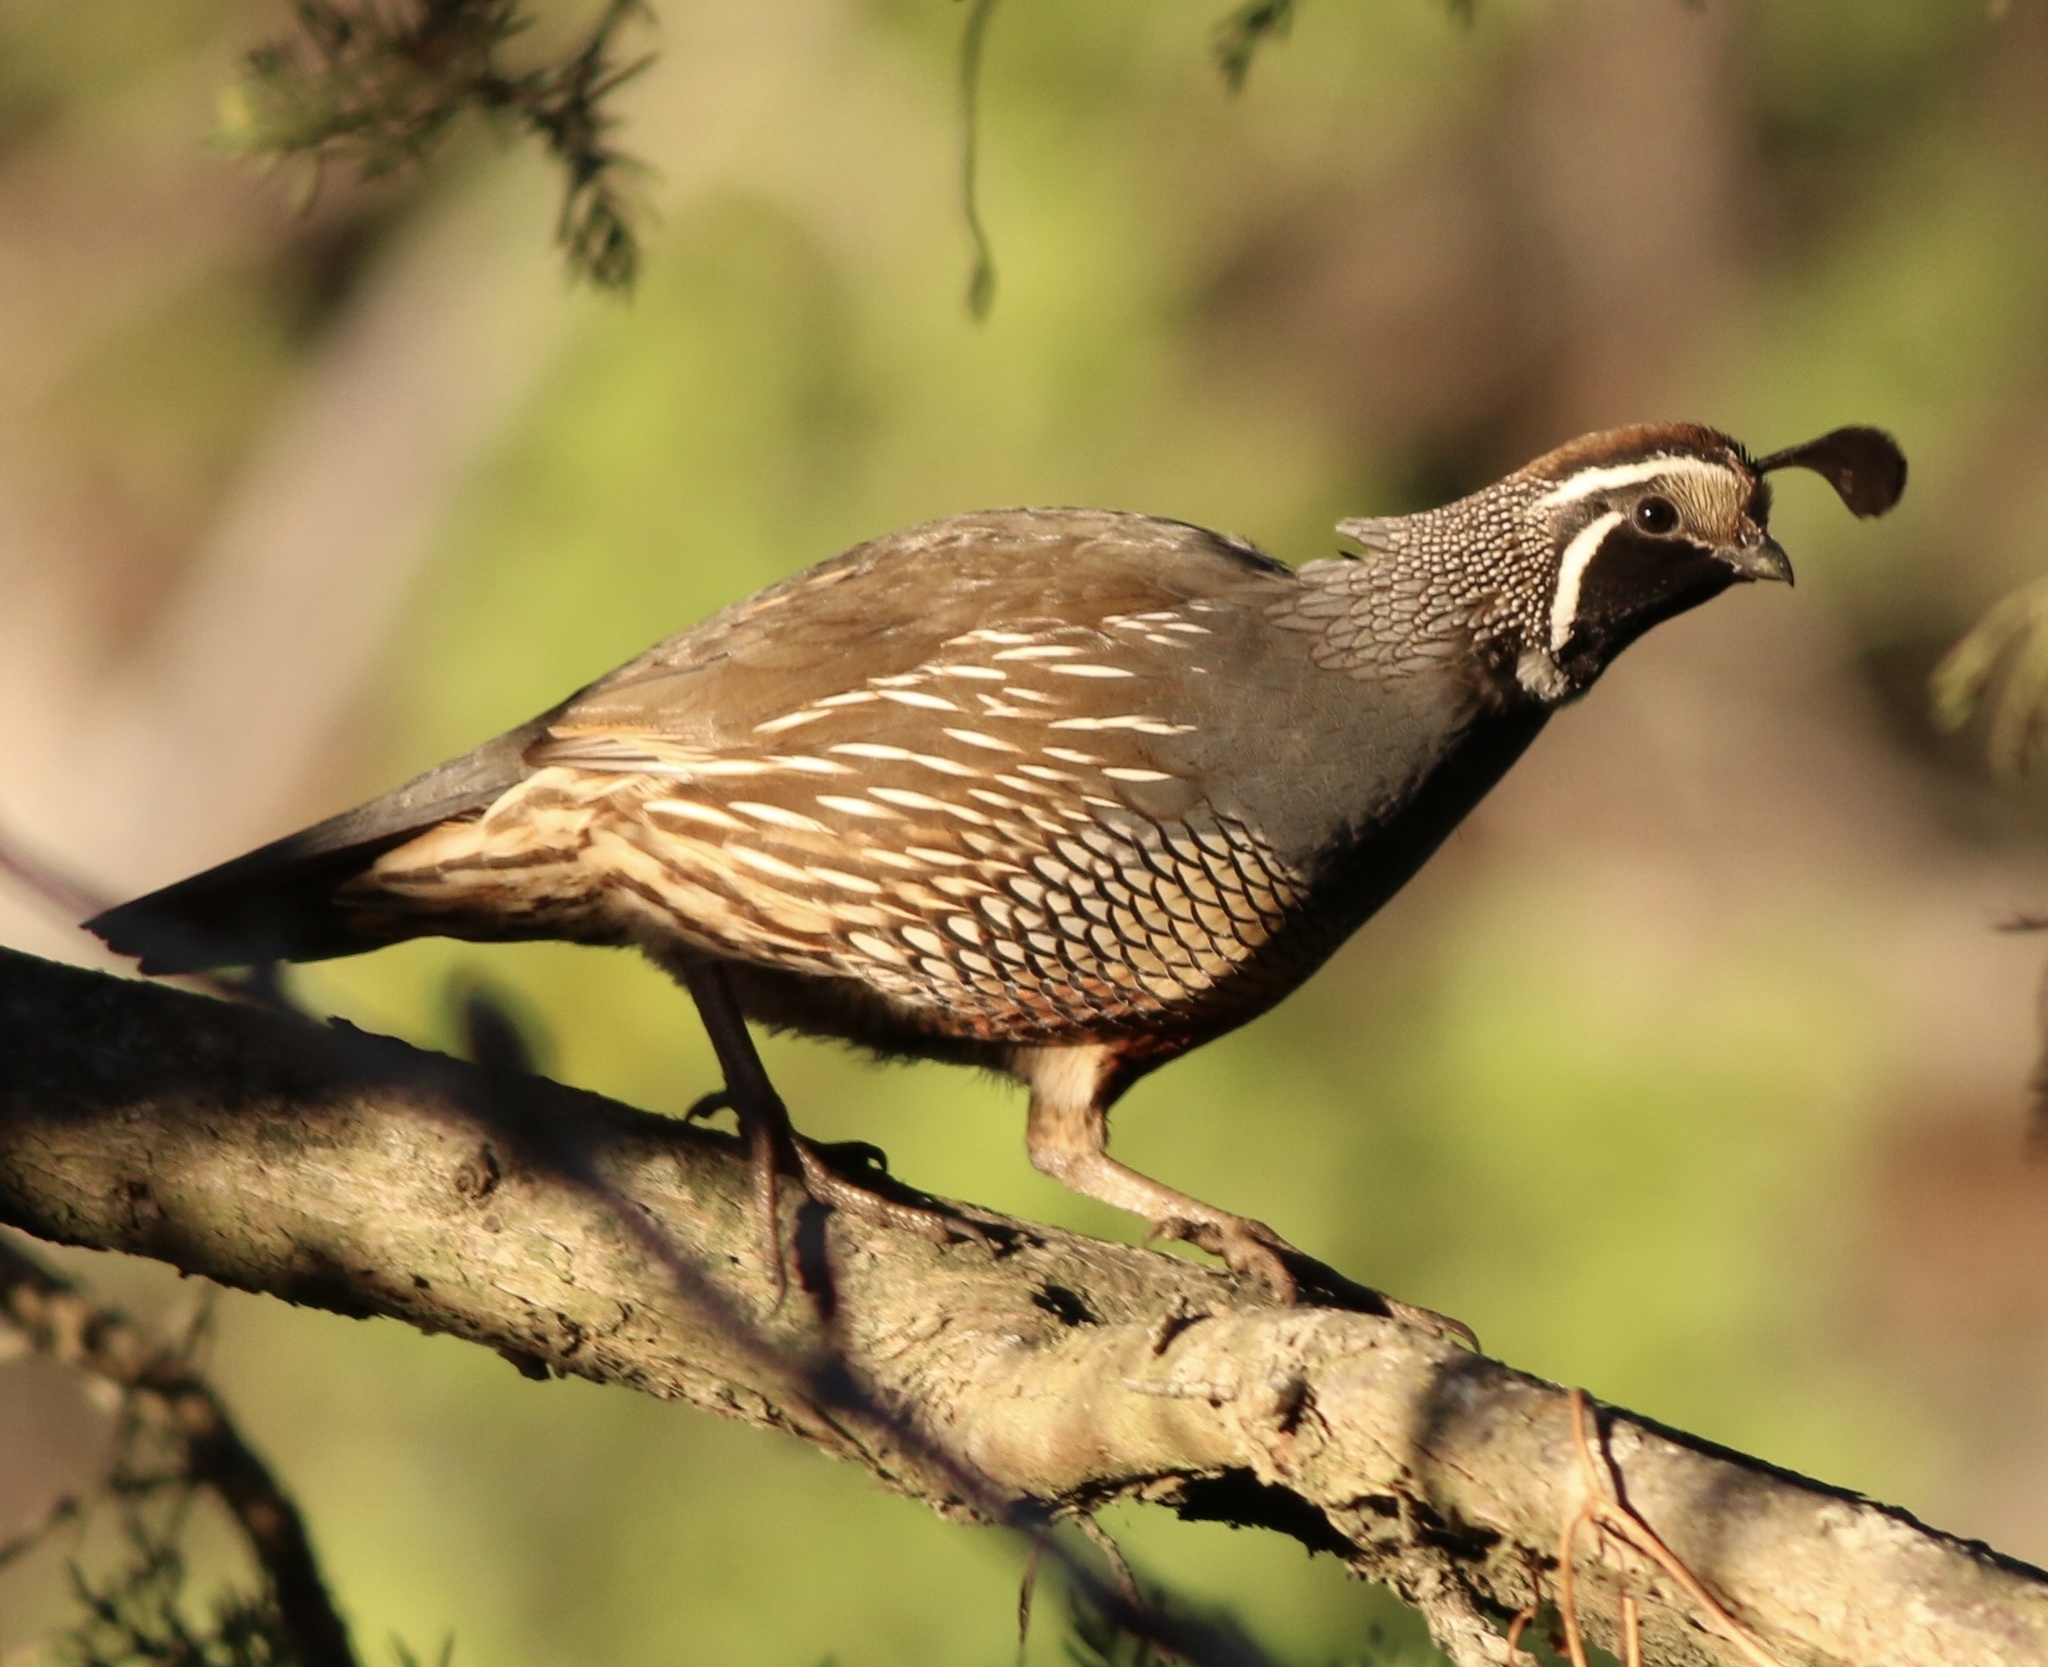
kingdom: Animalia
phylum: Chordata
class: Aves
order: Galliformes
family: Odontophoridae
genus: Callipepla
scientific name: Callipepla californica
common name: California quail
